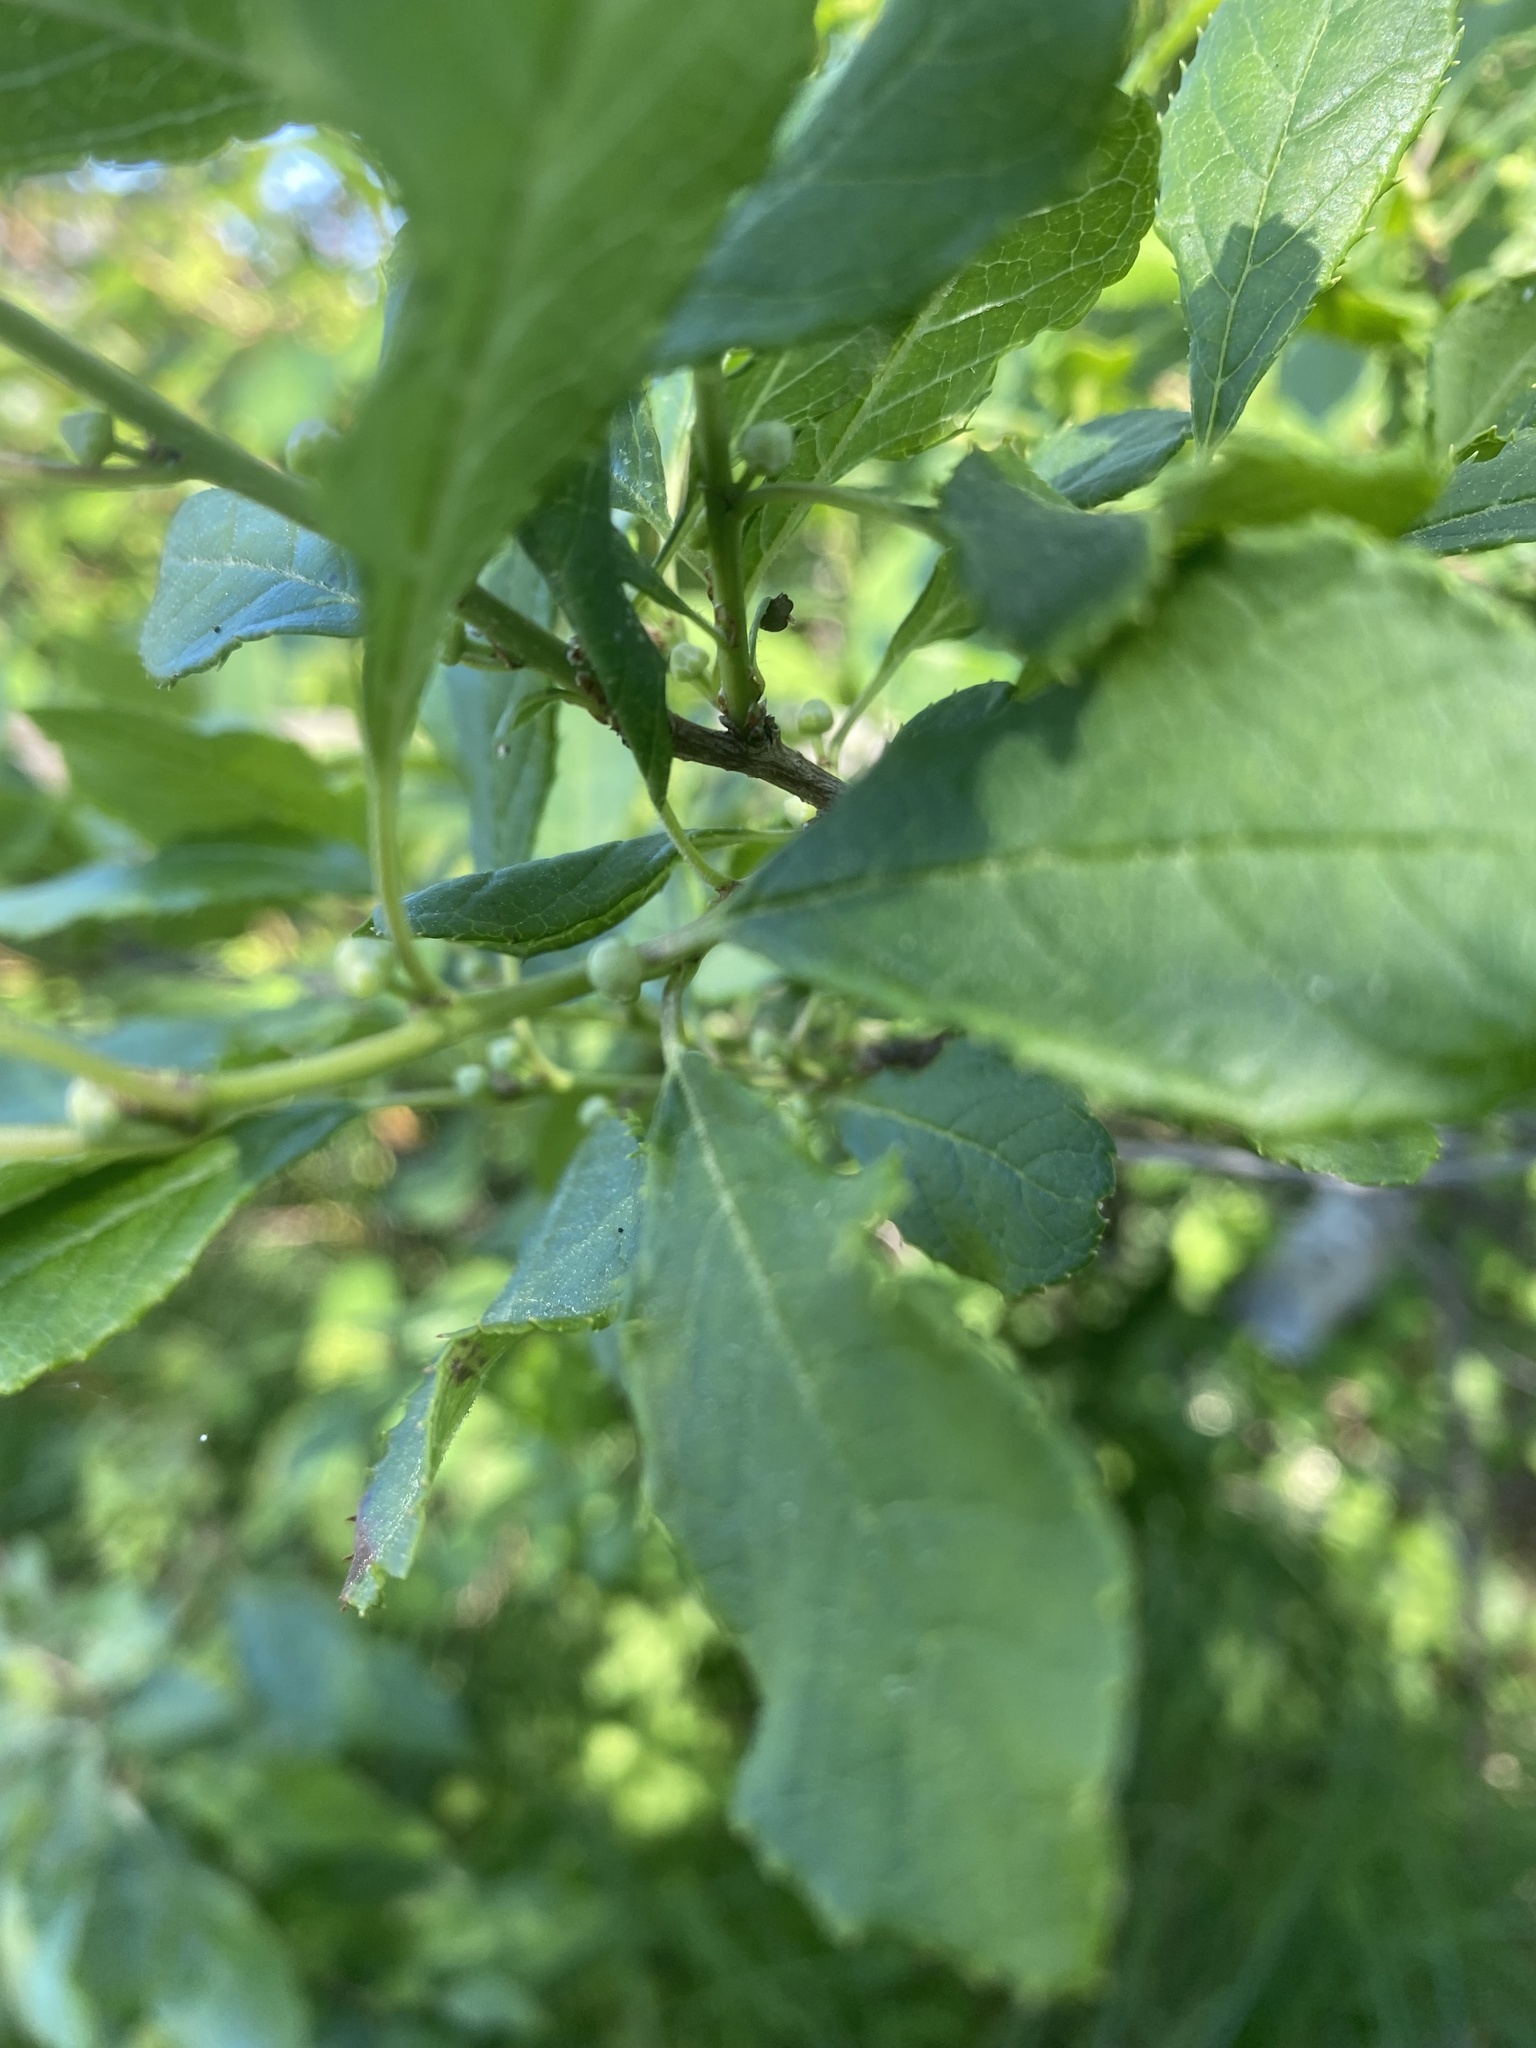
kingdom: Plantae
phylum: Tracheophyta
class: Magnoliopsida
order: Aquifoliales
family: Aquifoliaceae
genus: Ilex
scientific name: Ilex verticillata
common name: Virginia winterberry
